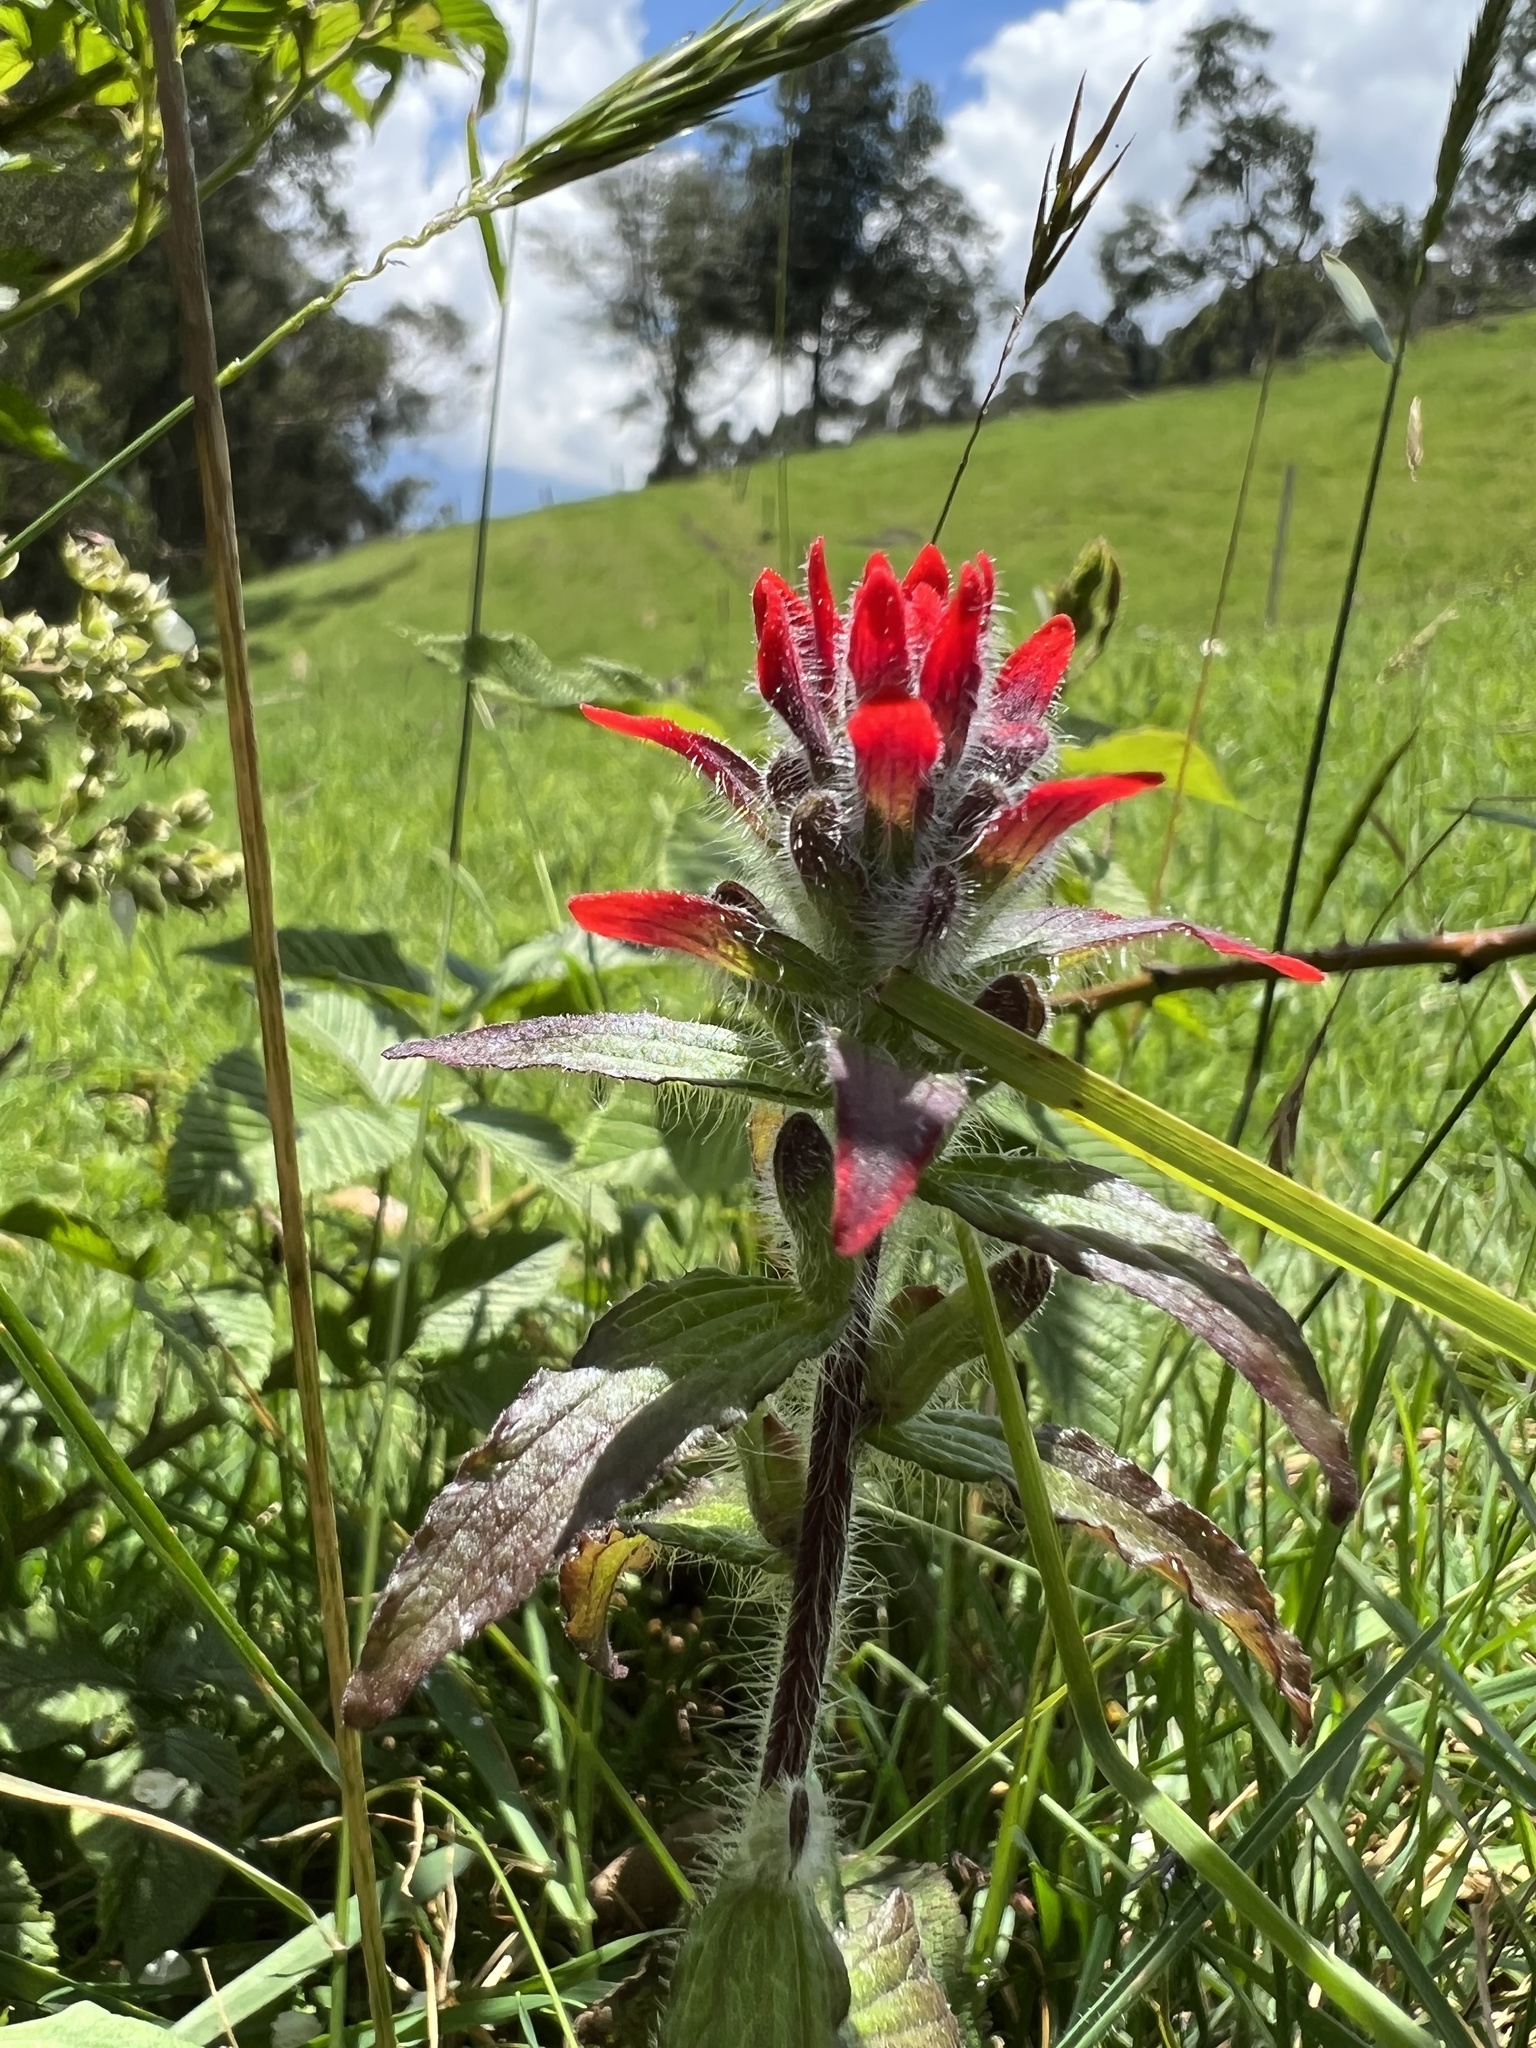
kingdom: Plantae
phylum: Tracheophyta
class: Magnoliopsida
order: Lamiales
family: Orobanchaceae
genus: Castilleja
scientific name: Castilleja arvensis
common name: Indian paintbrush
